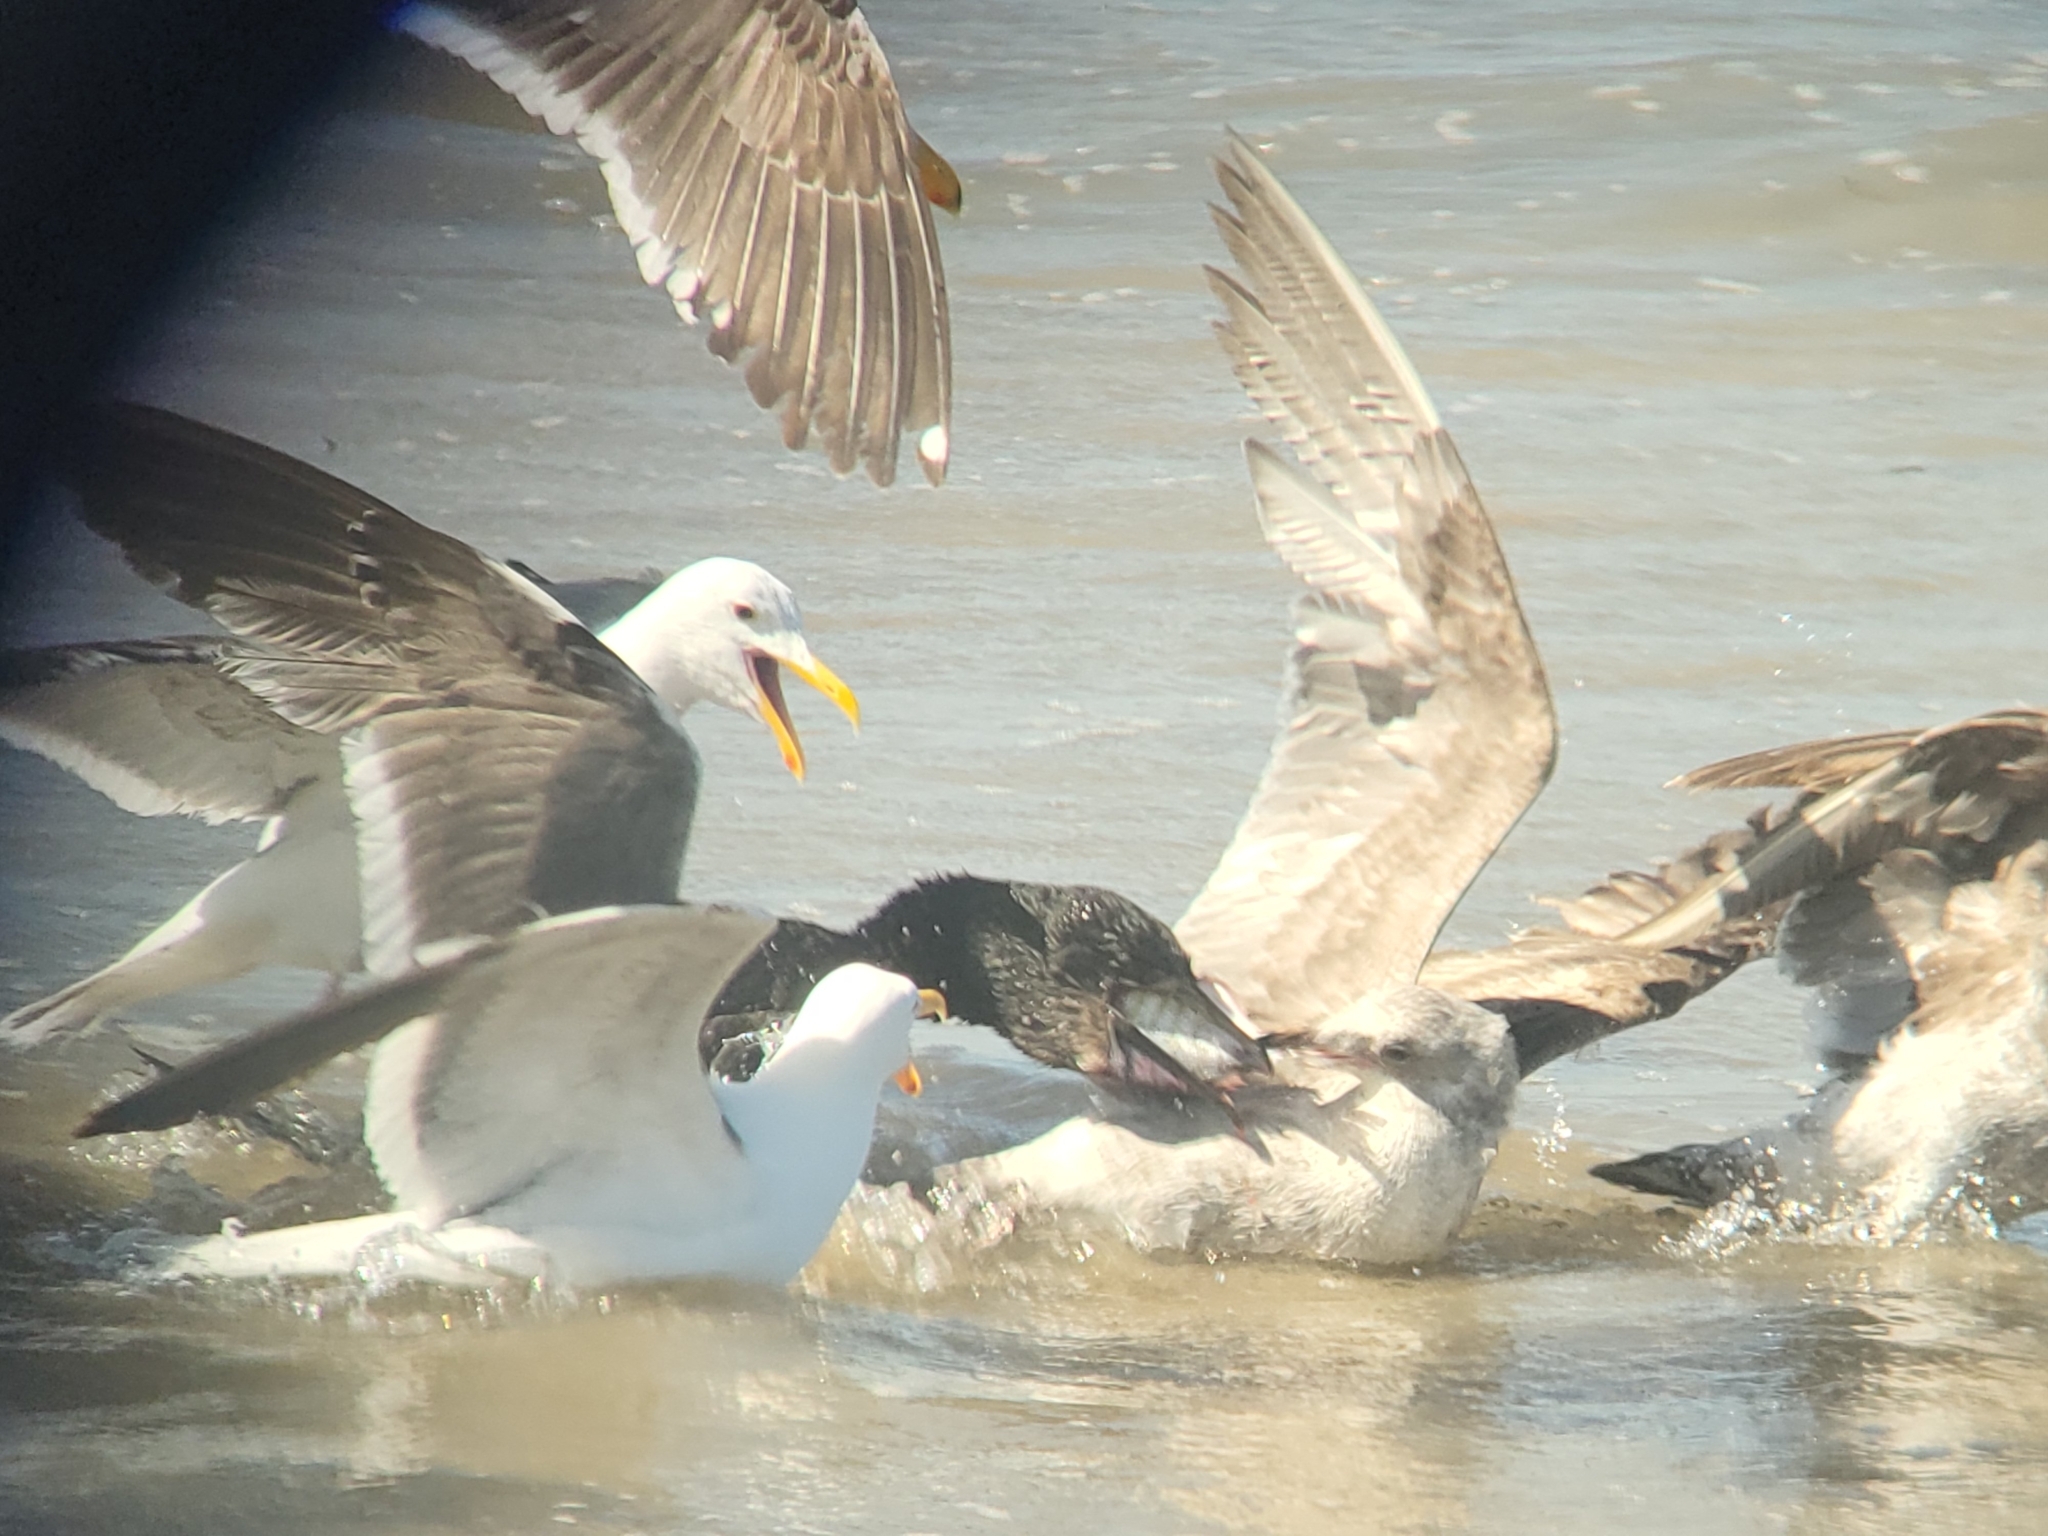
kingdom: Animalia
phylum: Chordata
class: Aves
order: Charadriiformes
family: Laridae
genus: Larus
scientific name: Larus occidentalis
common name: Western gull
